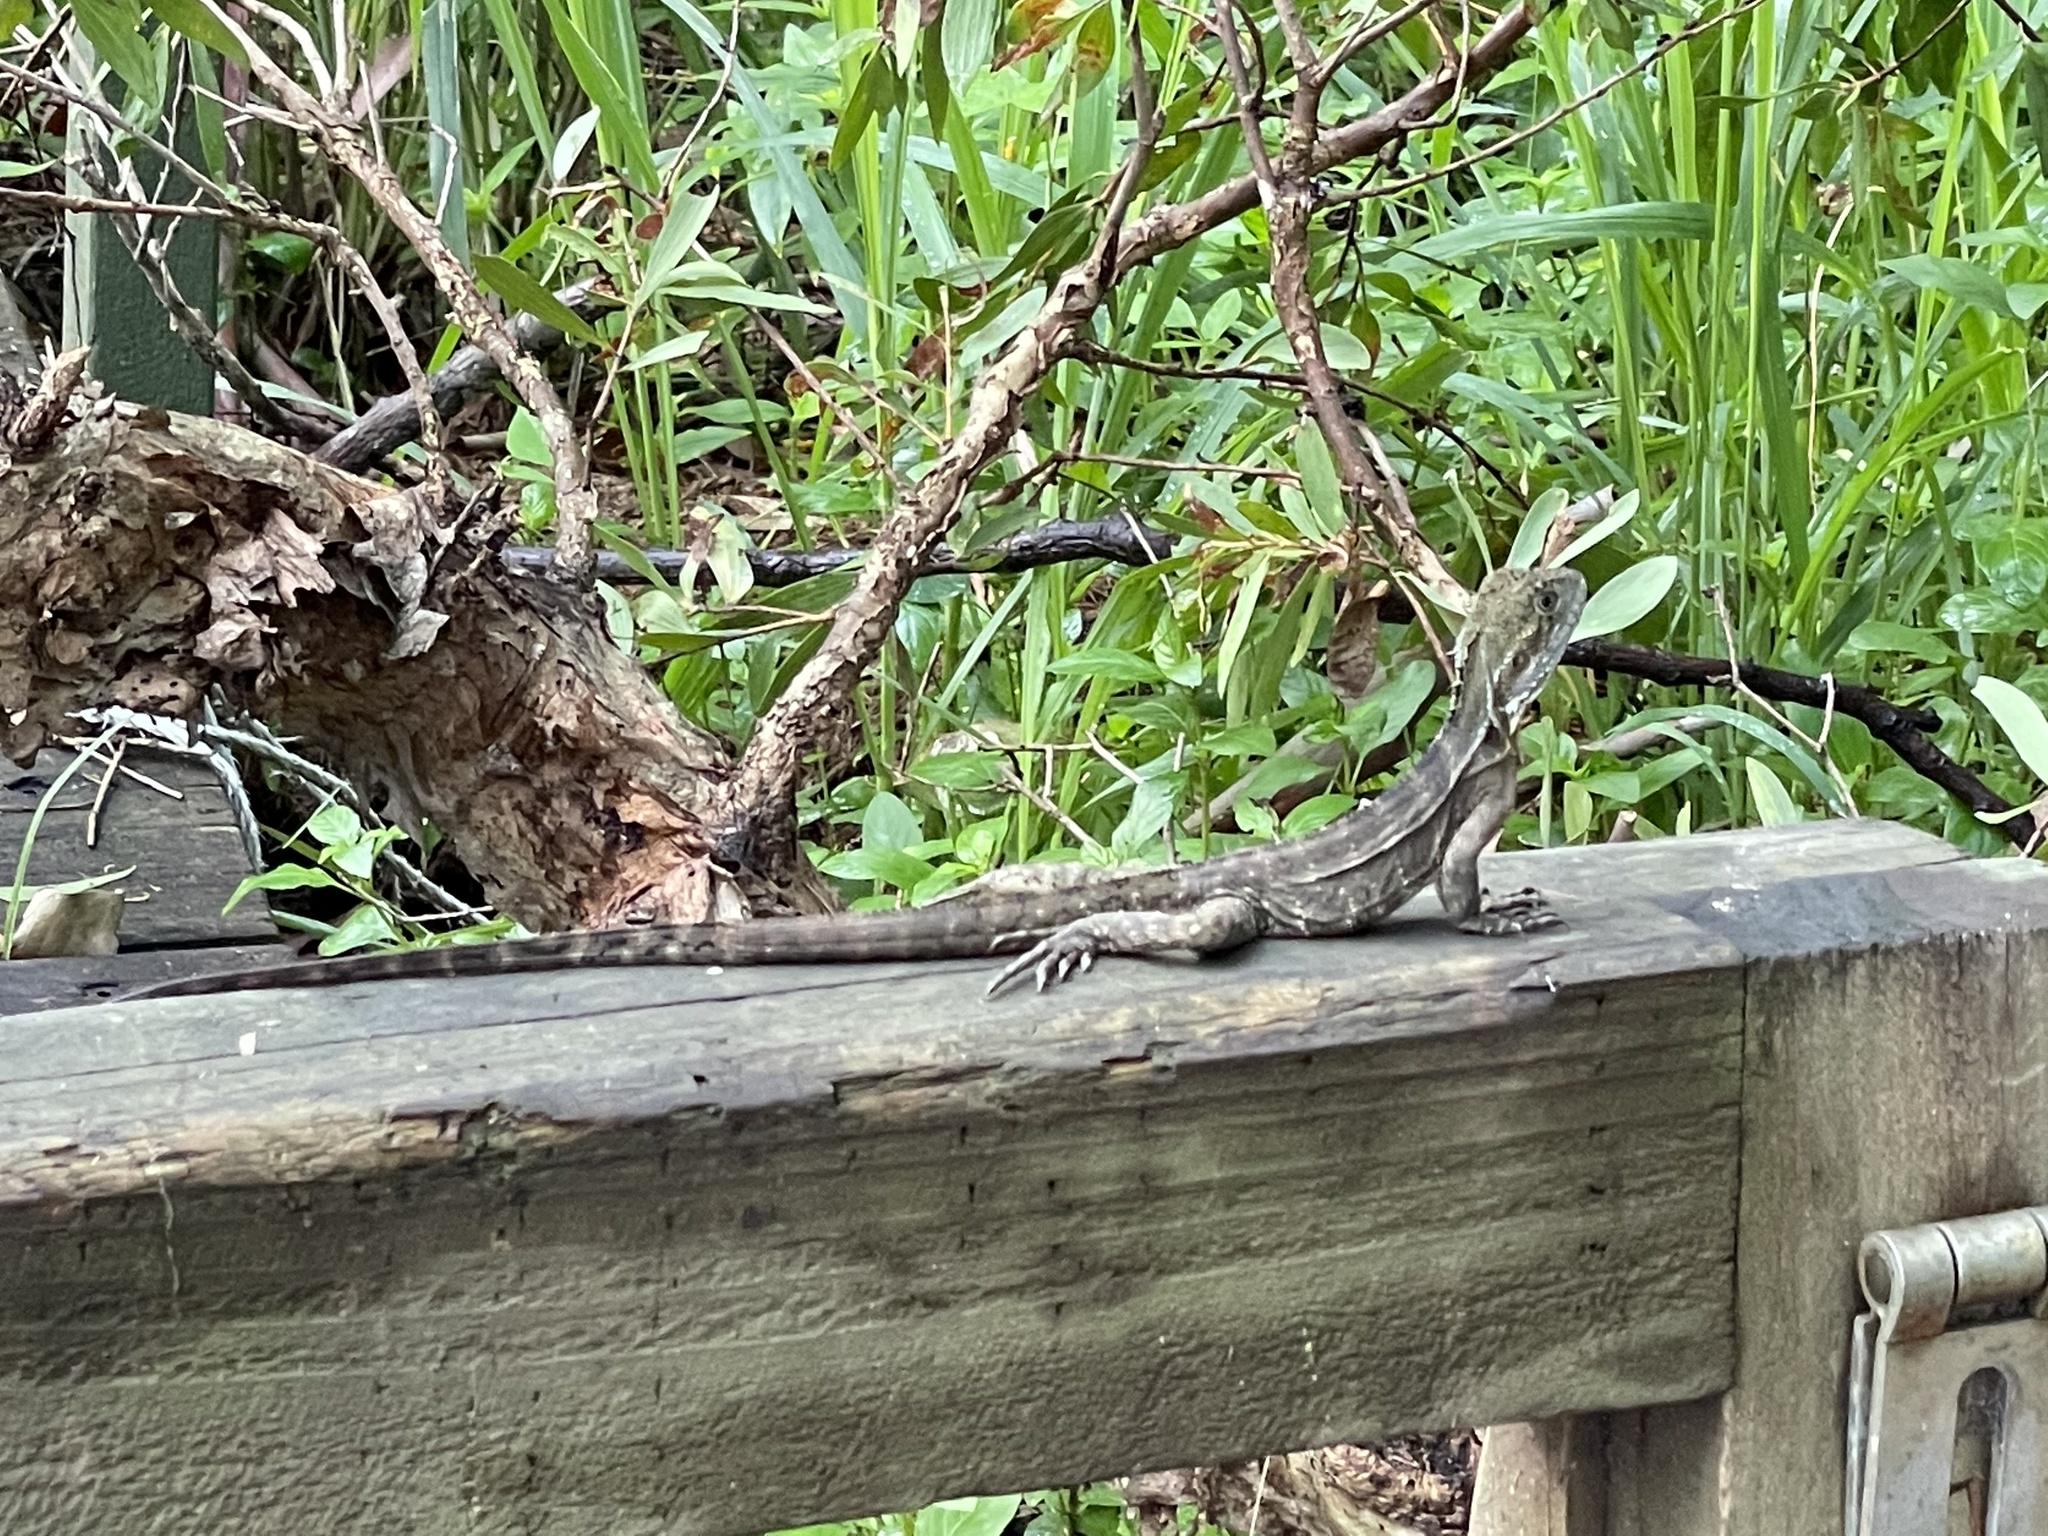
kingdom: Animalia
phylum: Chordata
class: Squamata
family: Agamidae
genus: Intellagama
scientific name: Intellagama lesueurii
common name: Eastern water dragon
